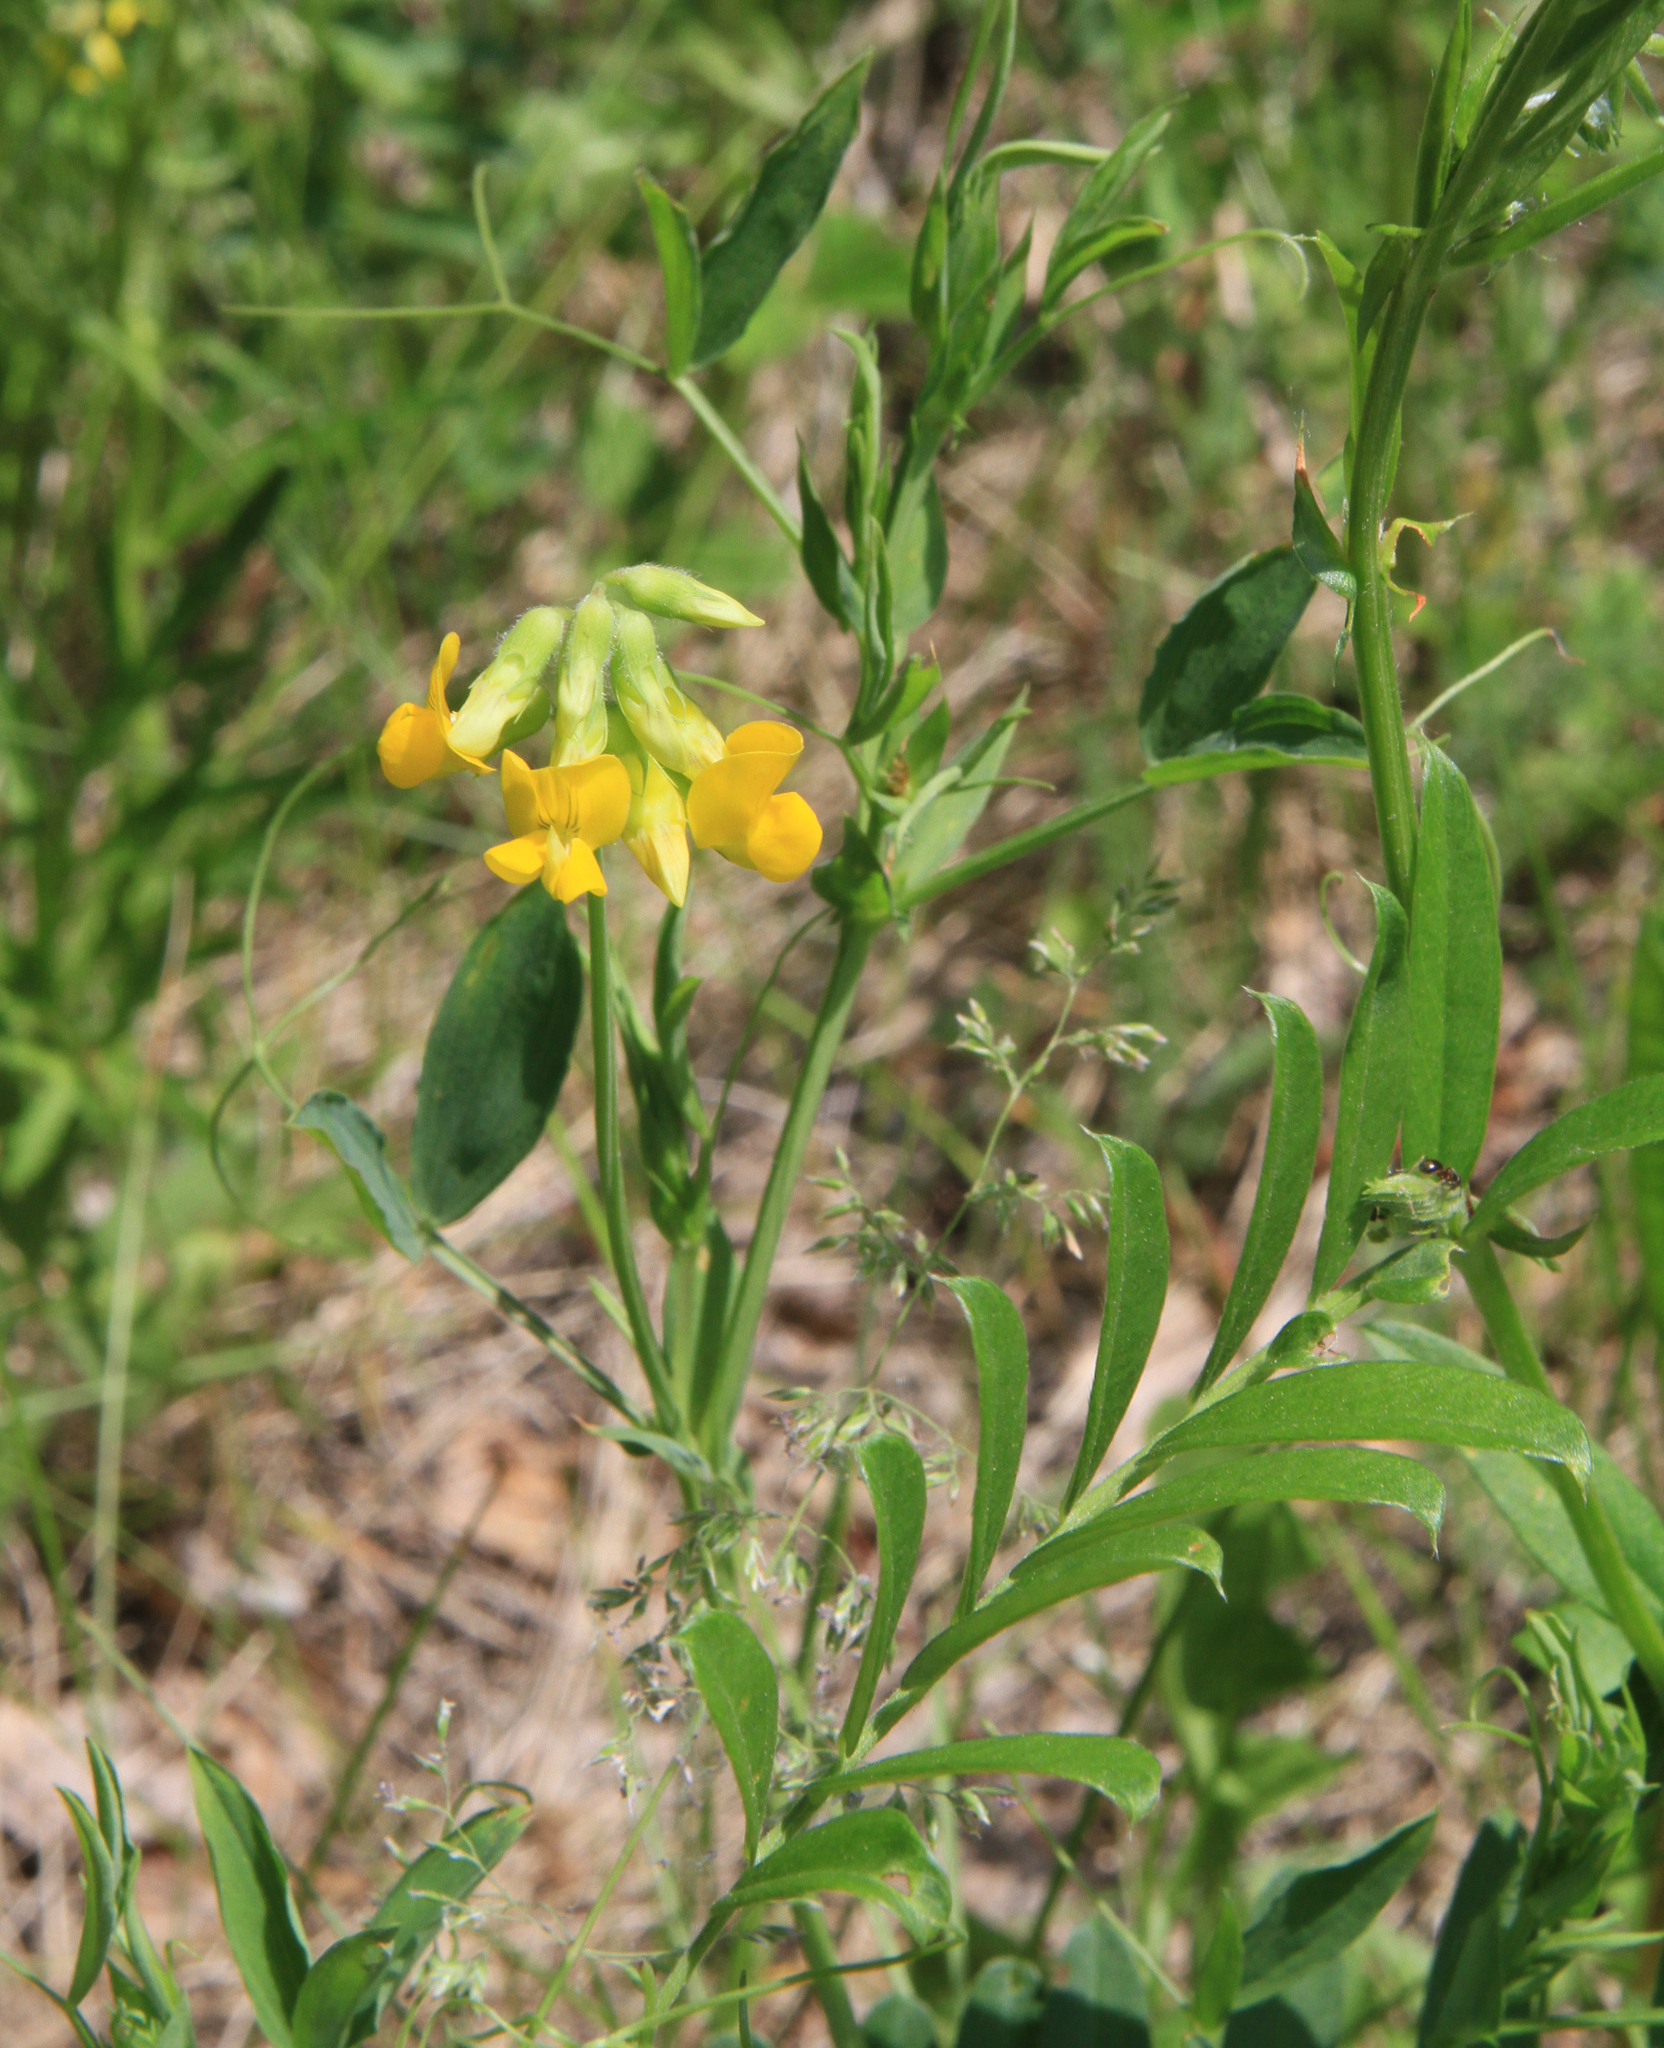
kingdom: Plantae
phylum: Tracheophyta
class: Magnoliopsida
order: Fabales
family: Fabaceae
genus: Lathyrus
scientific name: Lathyrus pratensis
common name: Meadow vetchling
